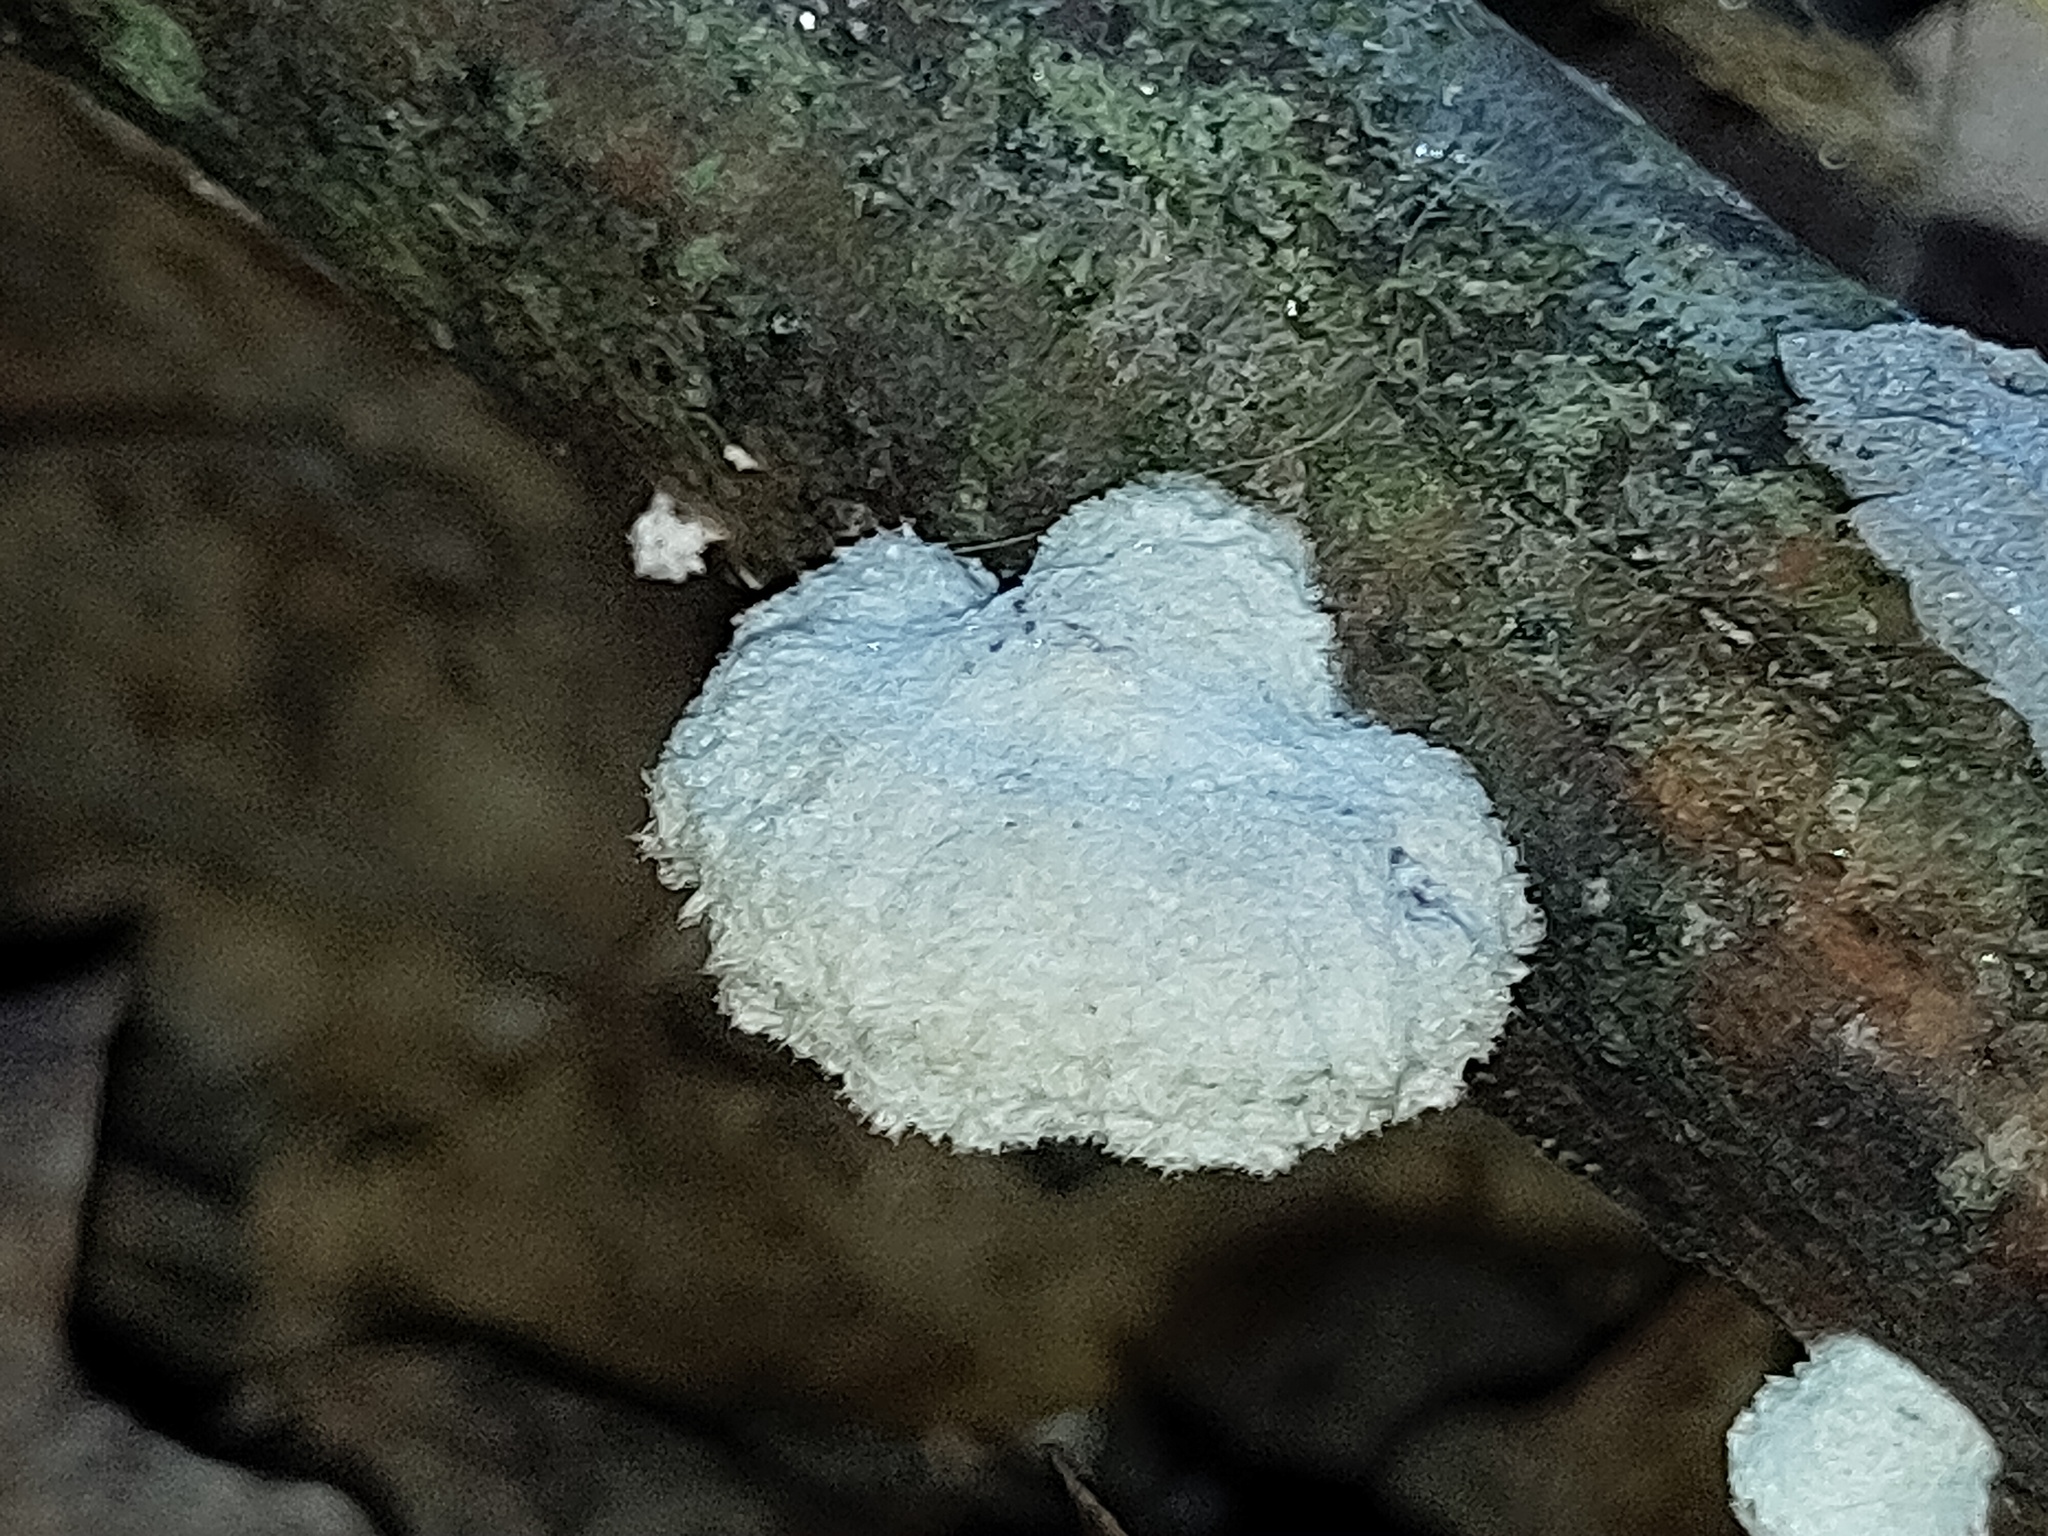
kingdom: Fungi
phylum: Basidiomycota
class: Agaricomycetes
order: Agaricales
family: Schizophyllaceae
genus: Schizophyllum
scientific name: Schizophyllum commune
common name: Common porecrust
